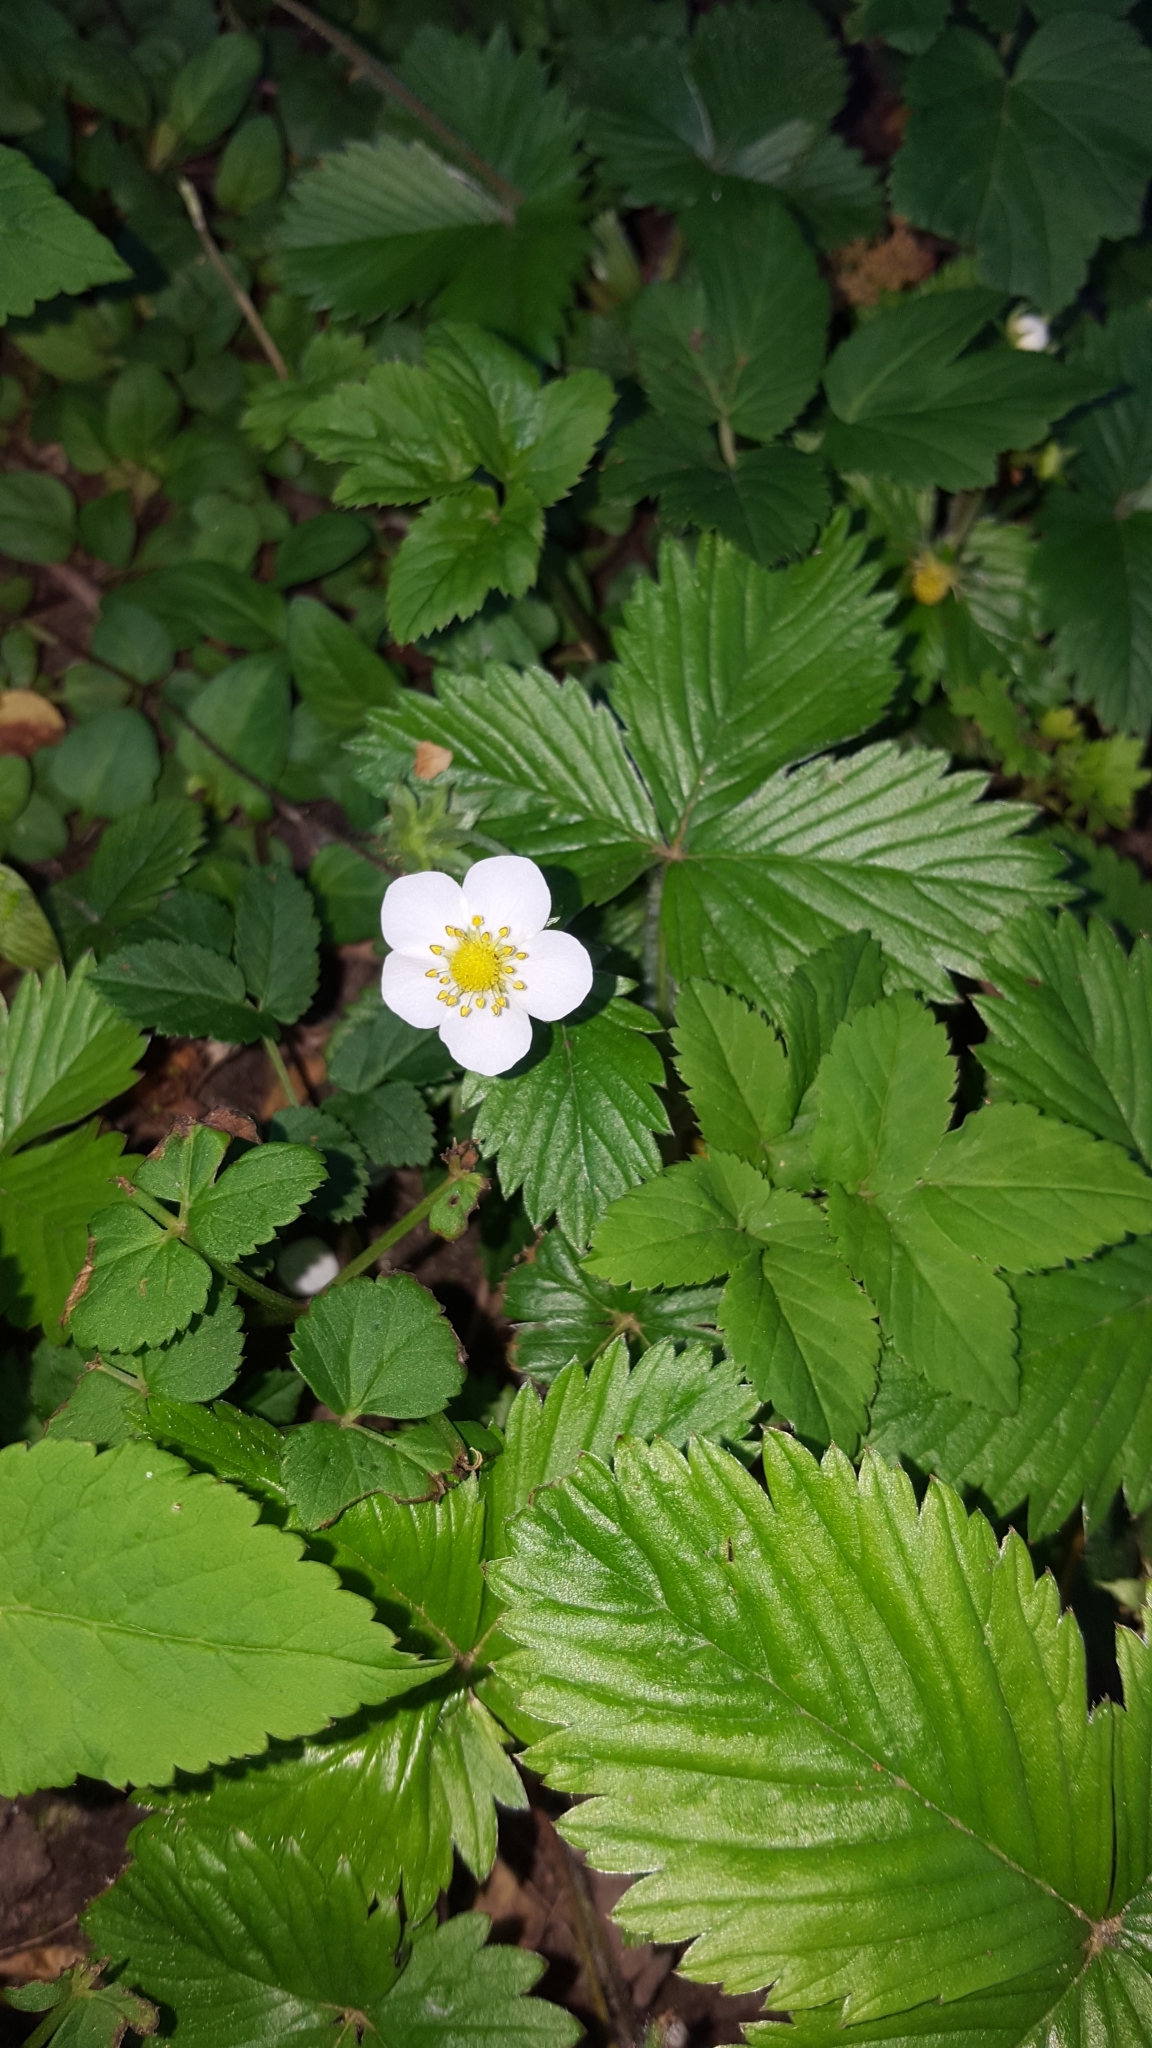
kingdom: Plantae
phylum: Tracheophyta
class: Magnoliopsida
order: Rosales
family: Rosaceae
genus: Fragaria
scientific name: Fragaria vesca
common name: Wild strawberry
